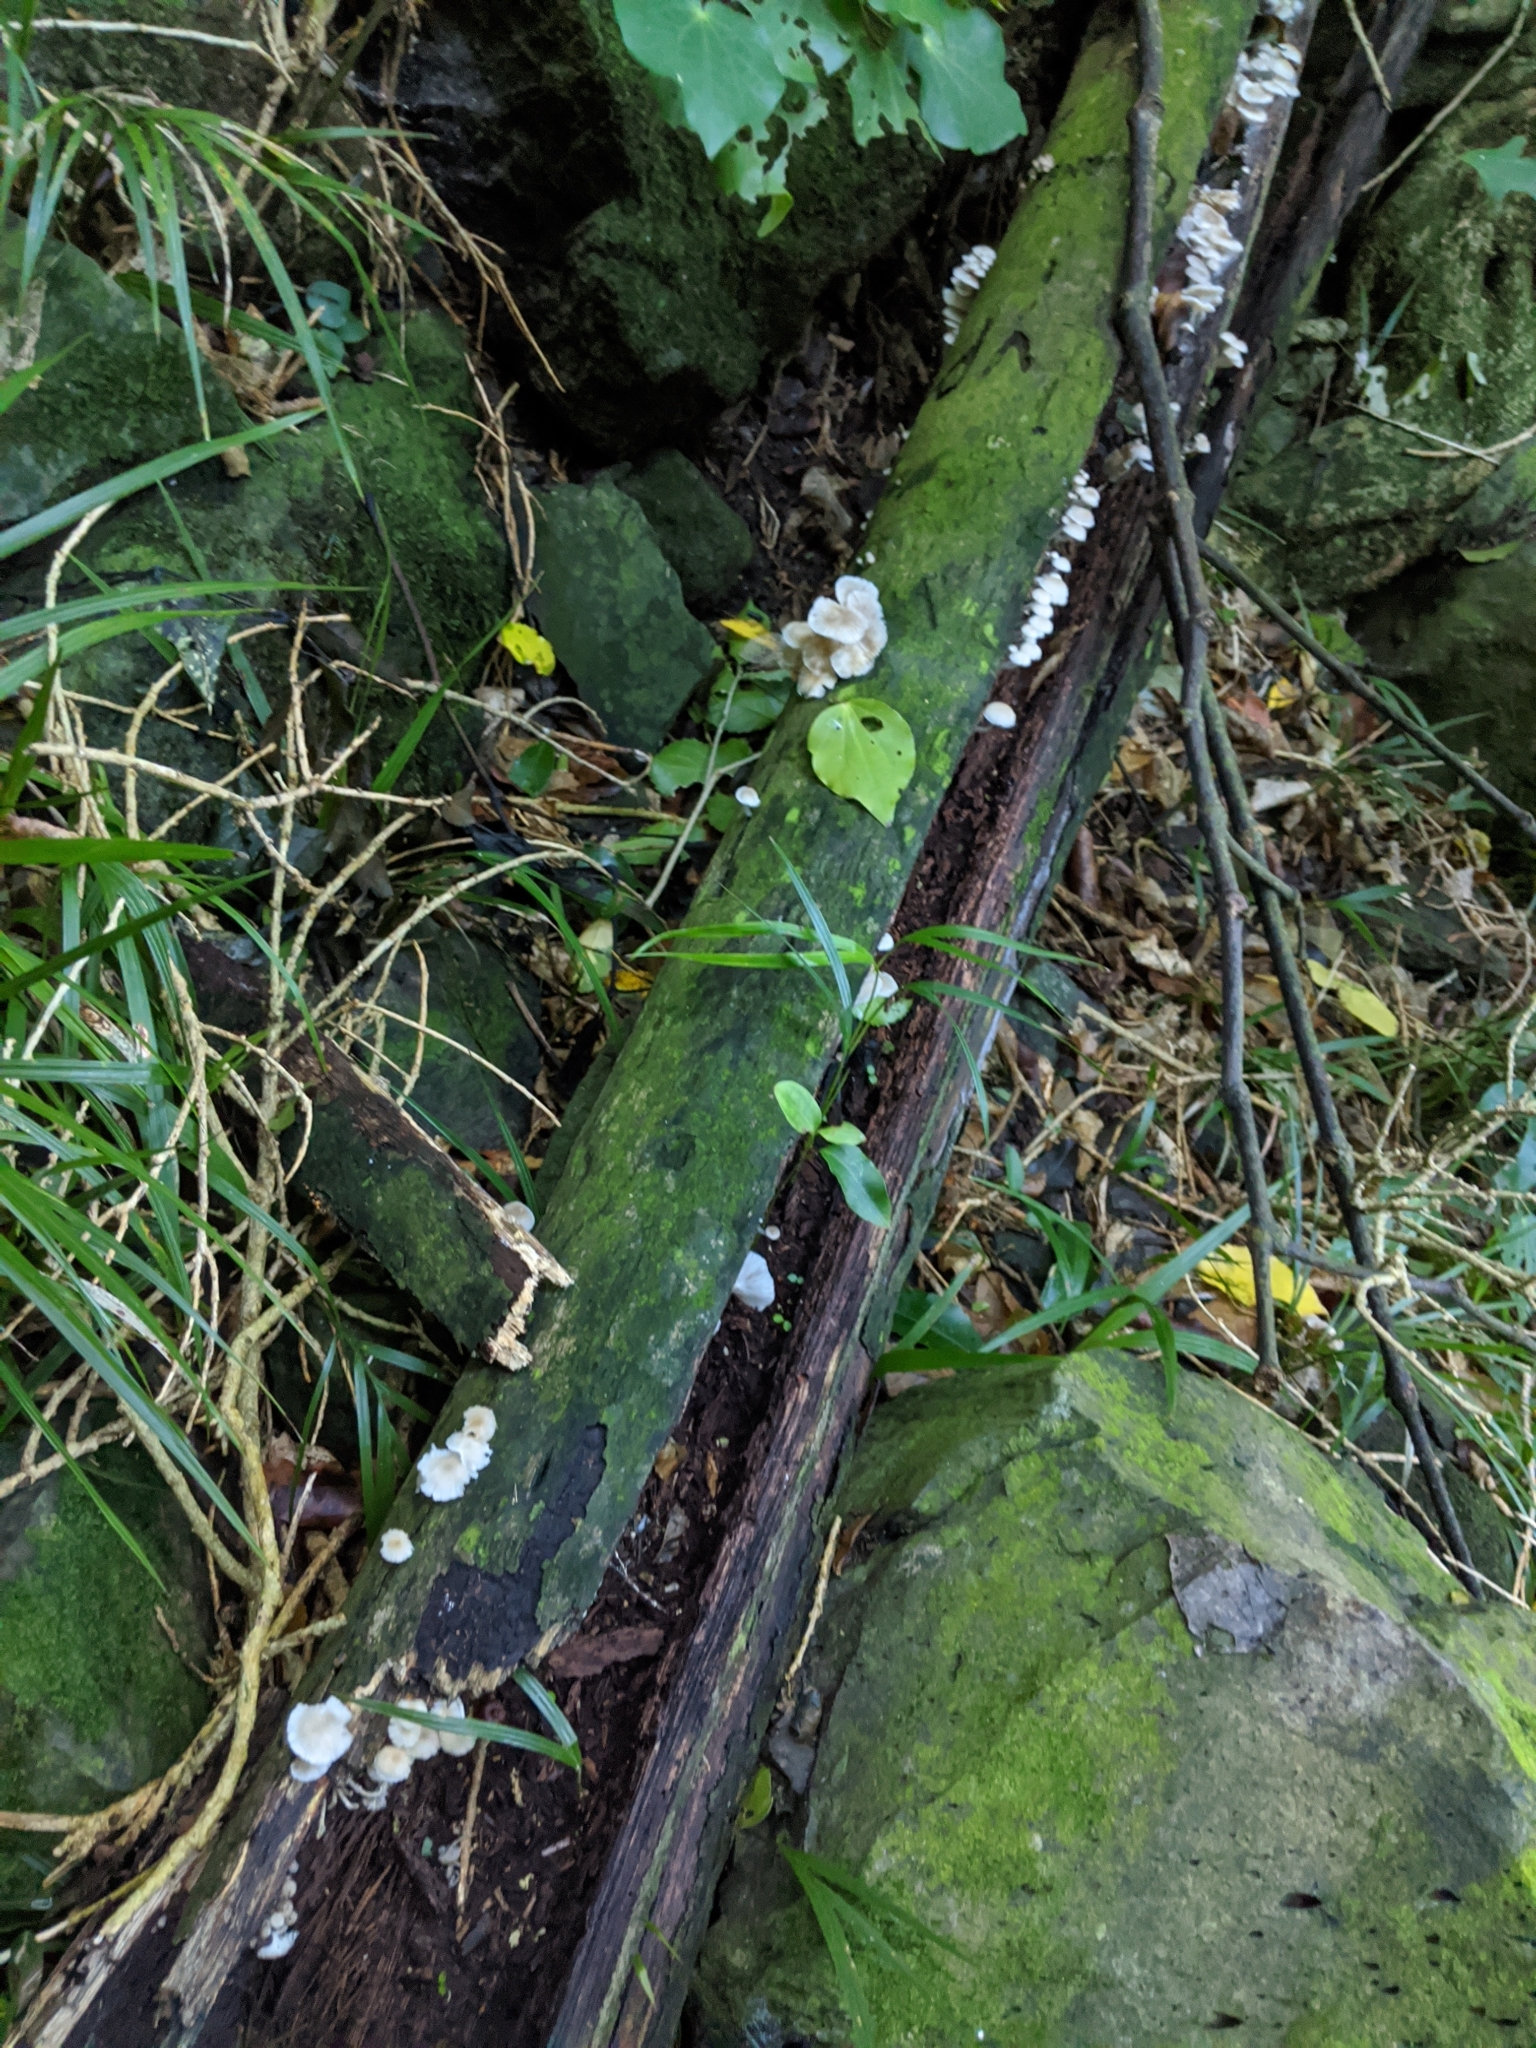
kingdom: Fungi
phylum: Basidiomycota
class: Agaricomycetes
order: Agaricales
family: Mycenaceae
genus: Roridomyces
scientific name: Roridomyces austrororidus
